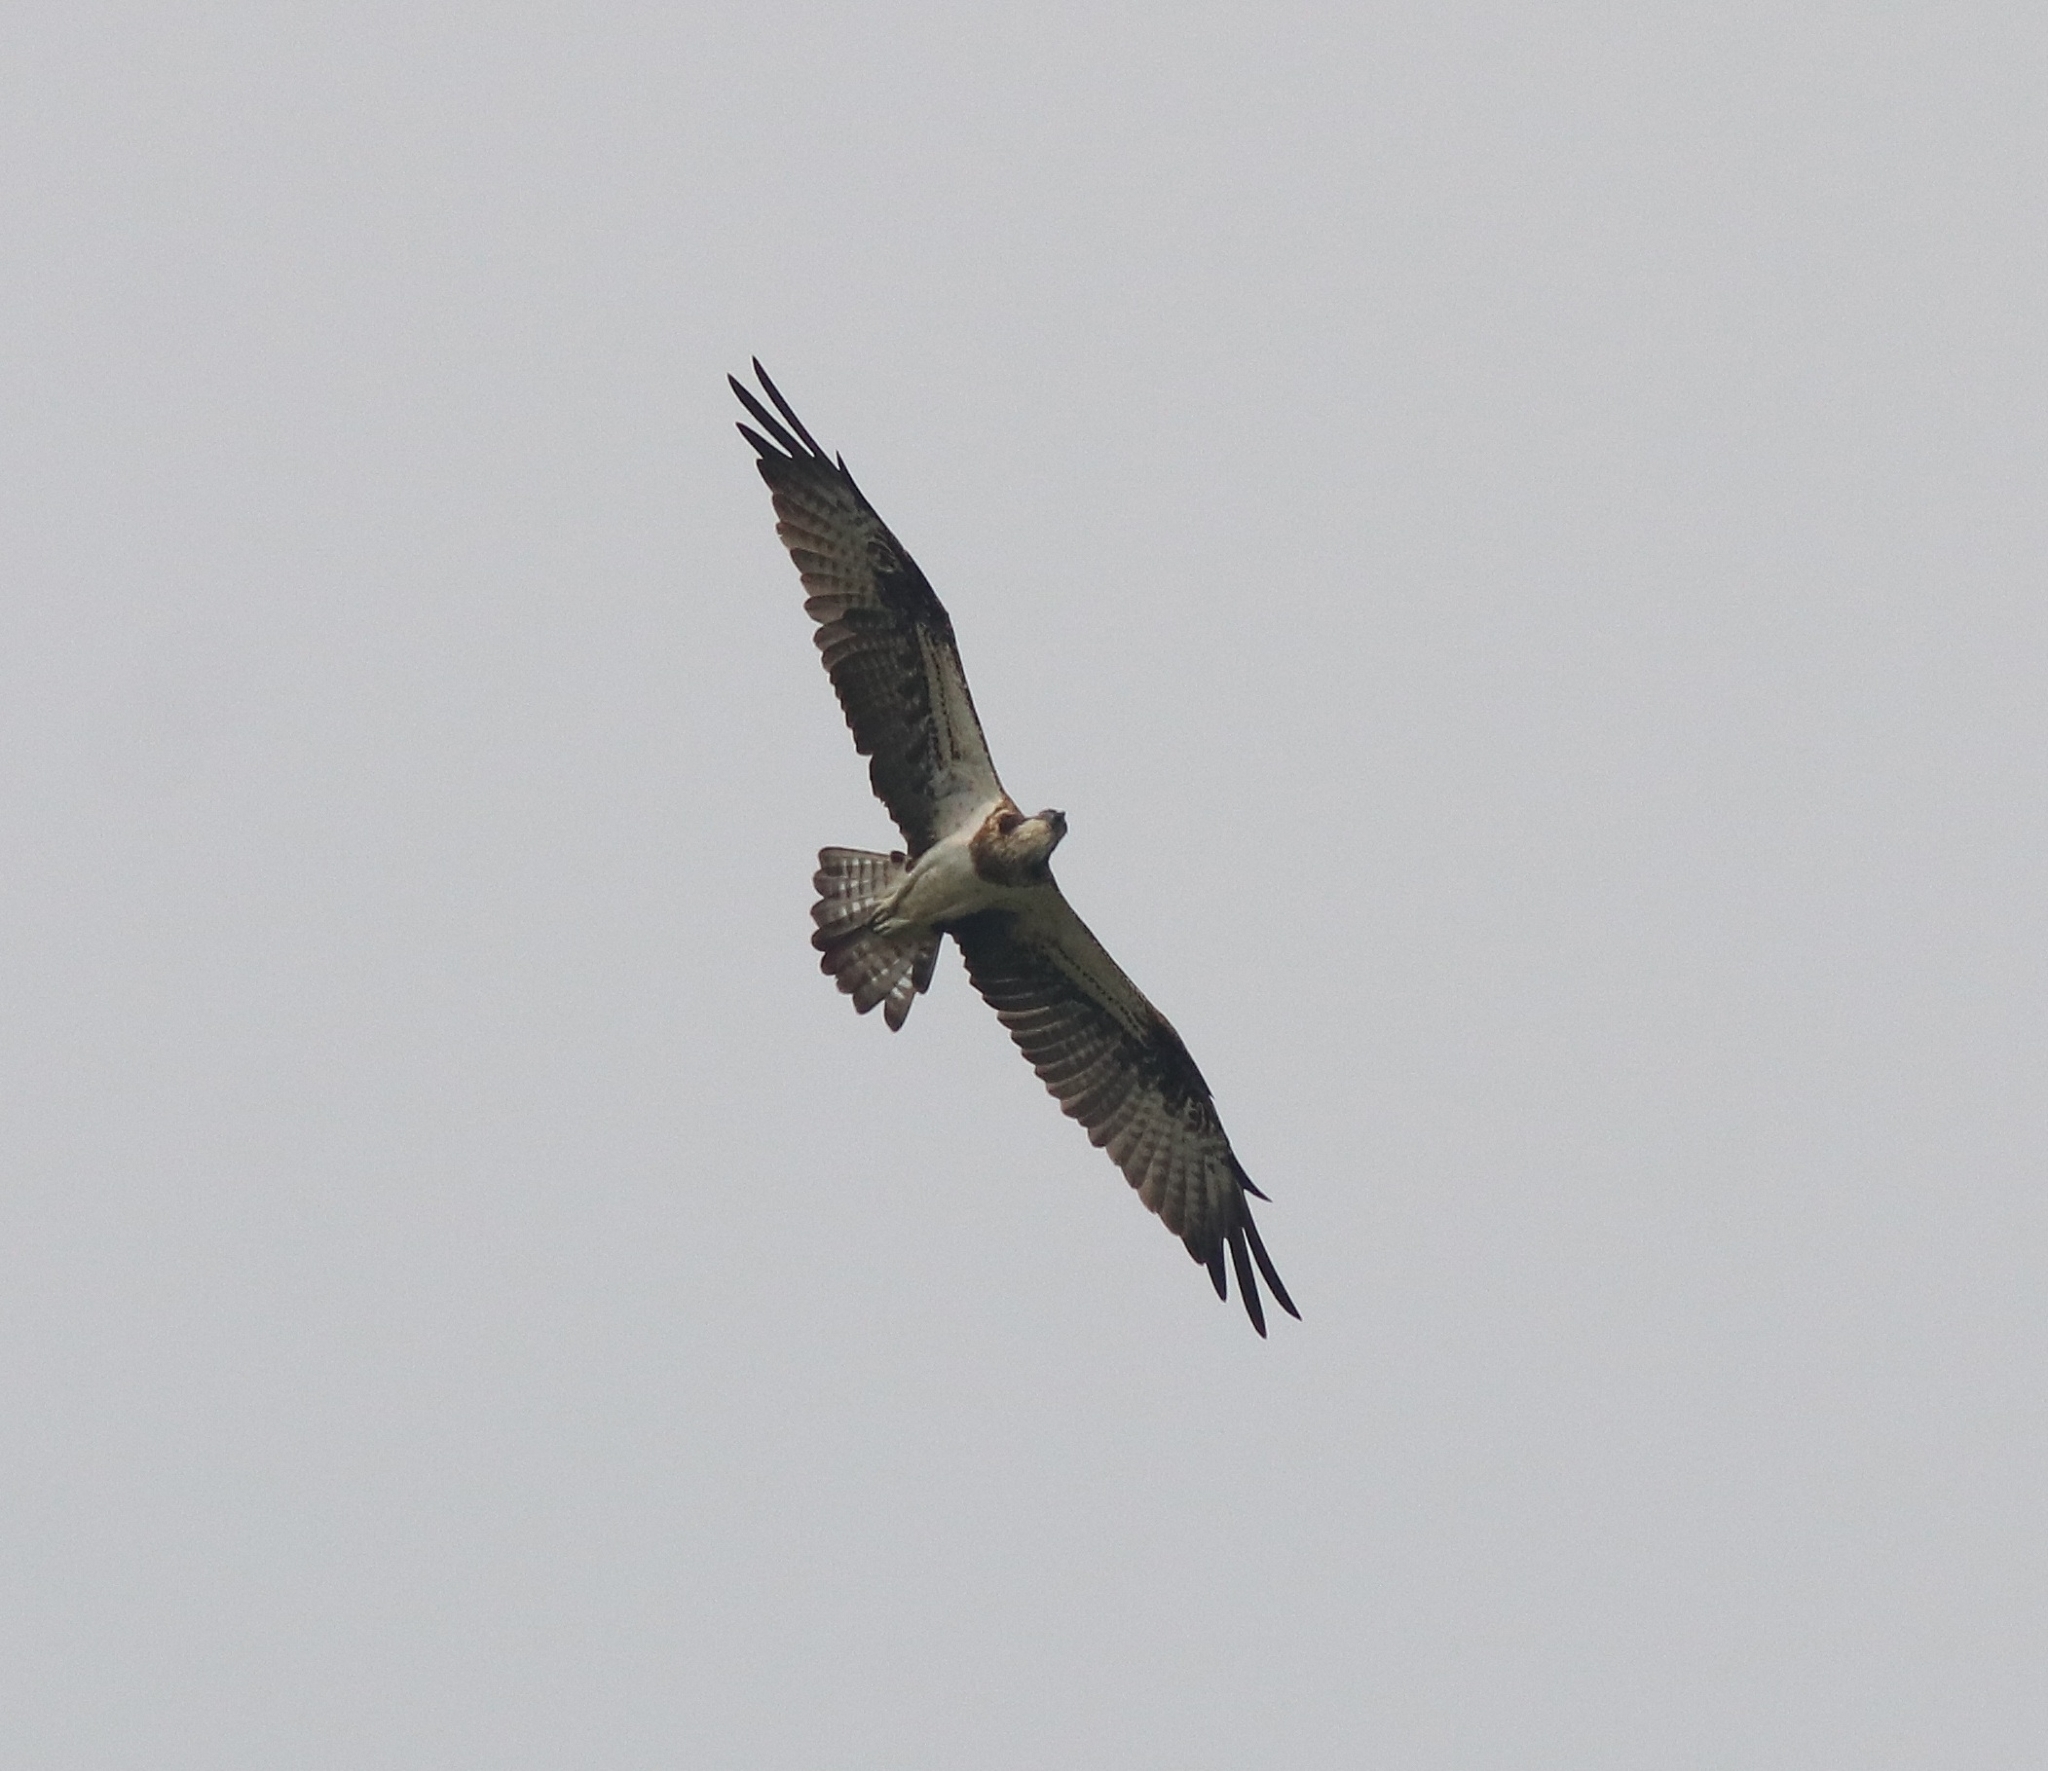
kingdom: Animalia
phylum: Chordata
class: Aves
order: Accipitriformes
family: Pandionidae
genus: Pandion
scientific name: Pandion haliaetus
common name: Osprey
